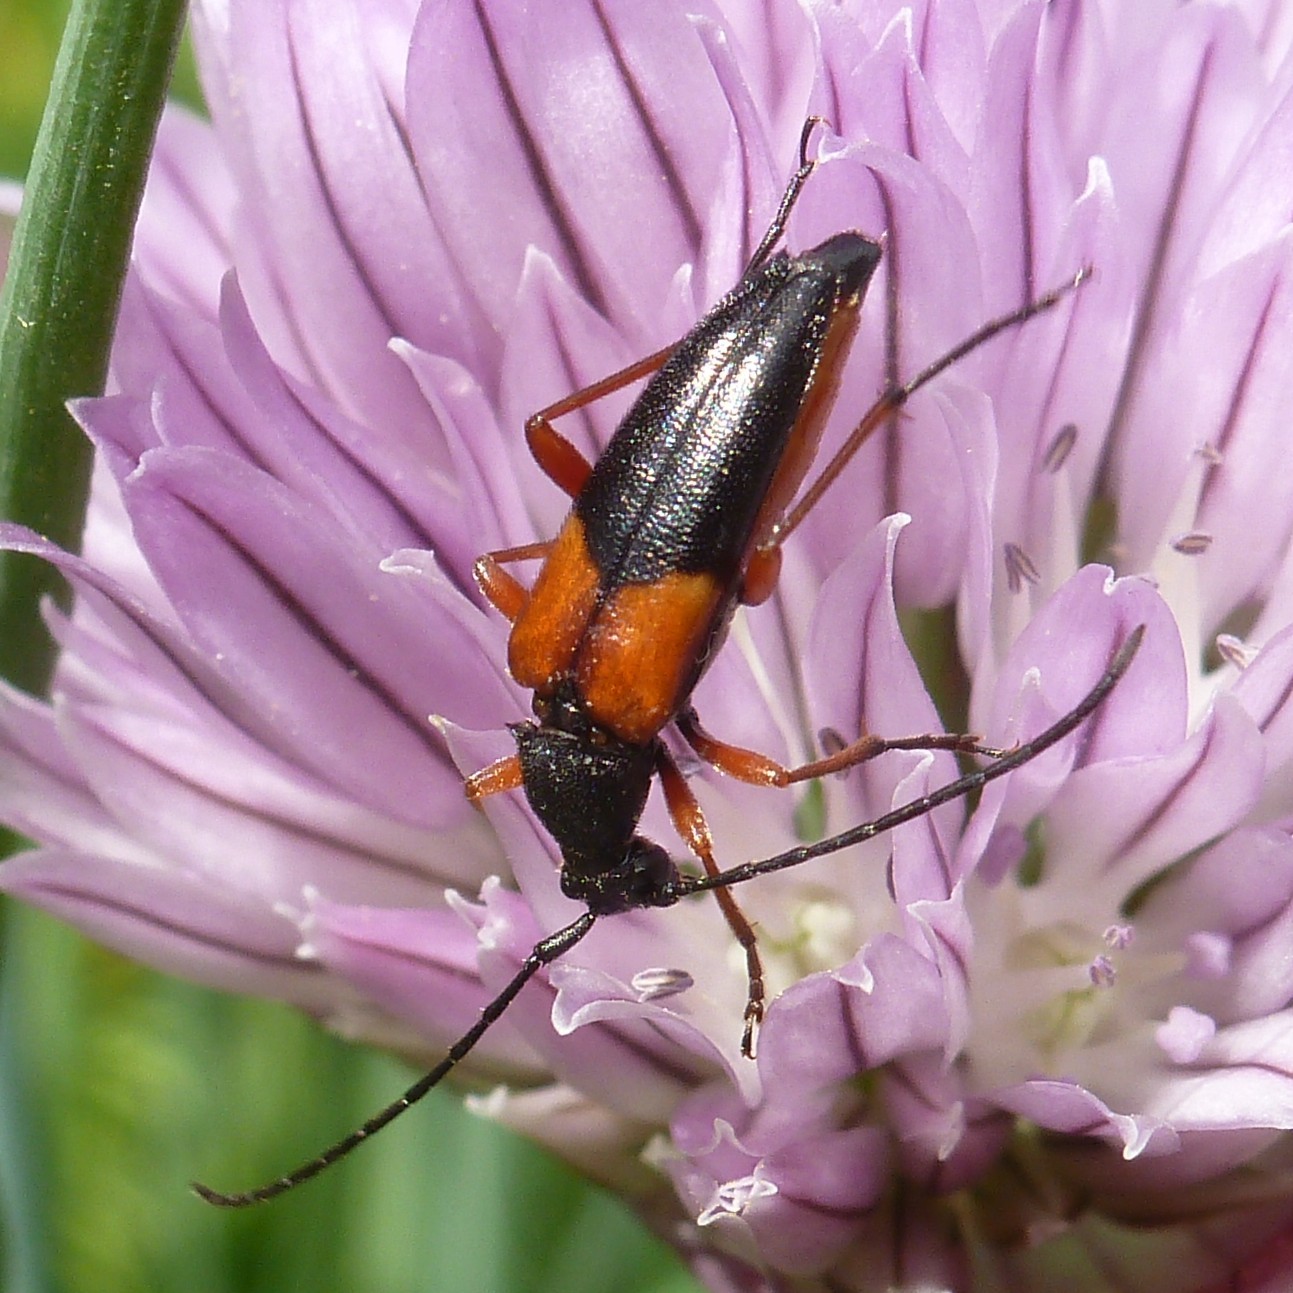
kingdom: Animalia
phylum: Arthropoda
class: Insecta
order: Coleoptera
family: Cerambycidae
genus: Stenurella
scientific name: Stenurella jaegeri
